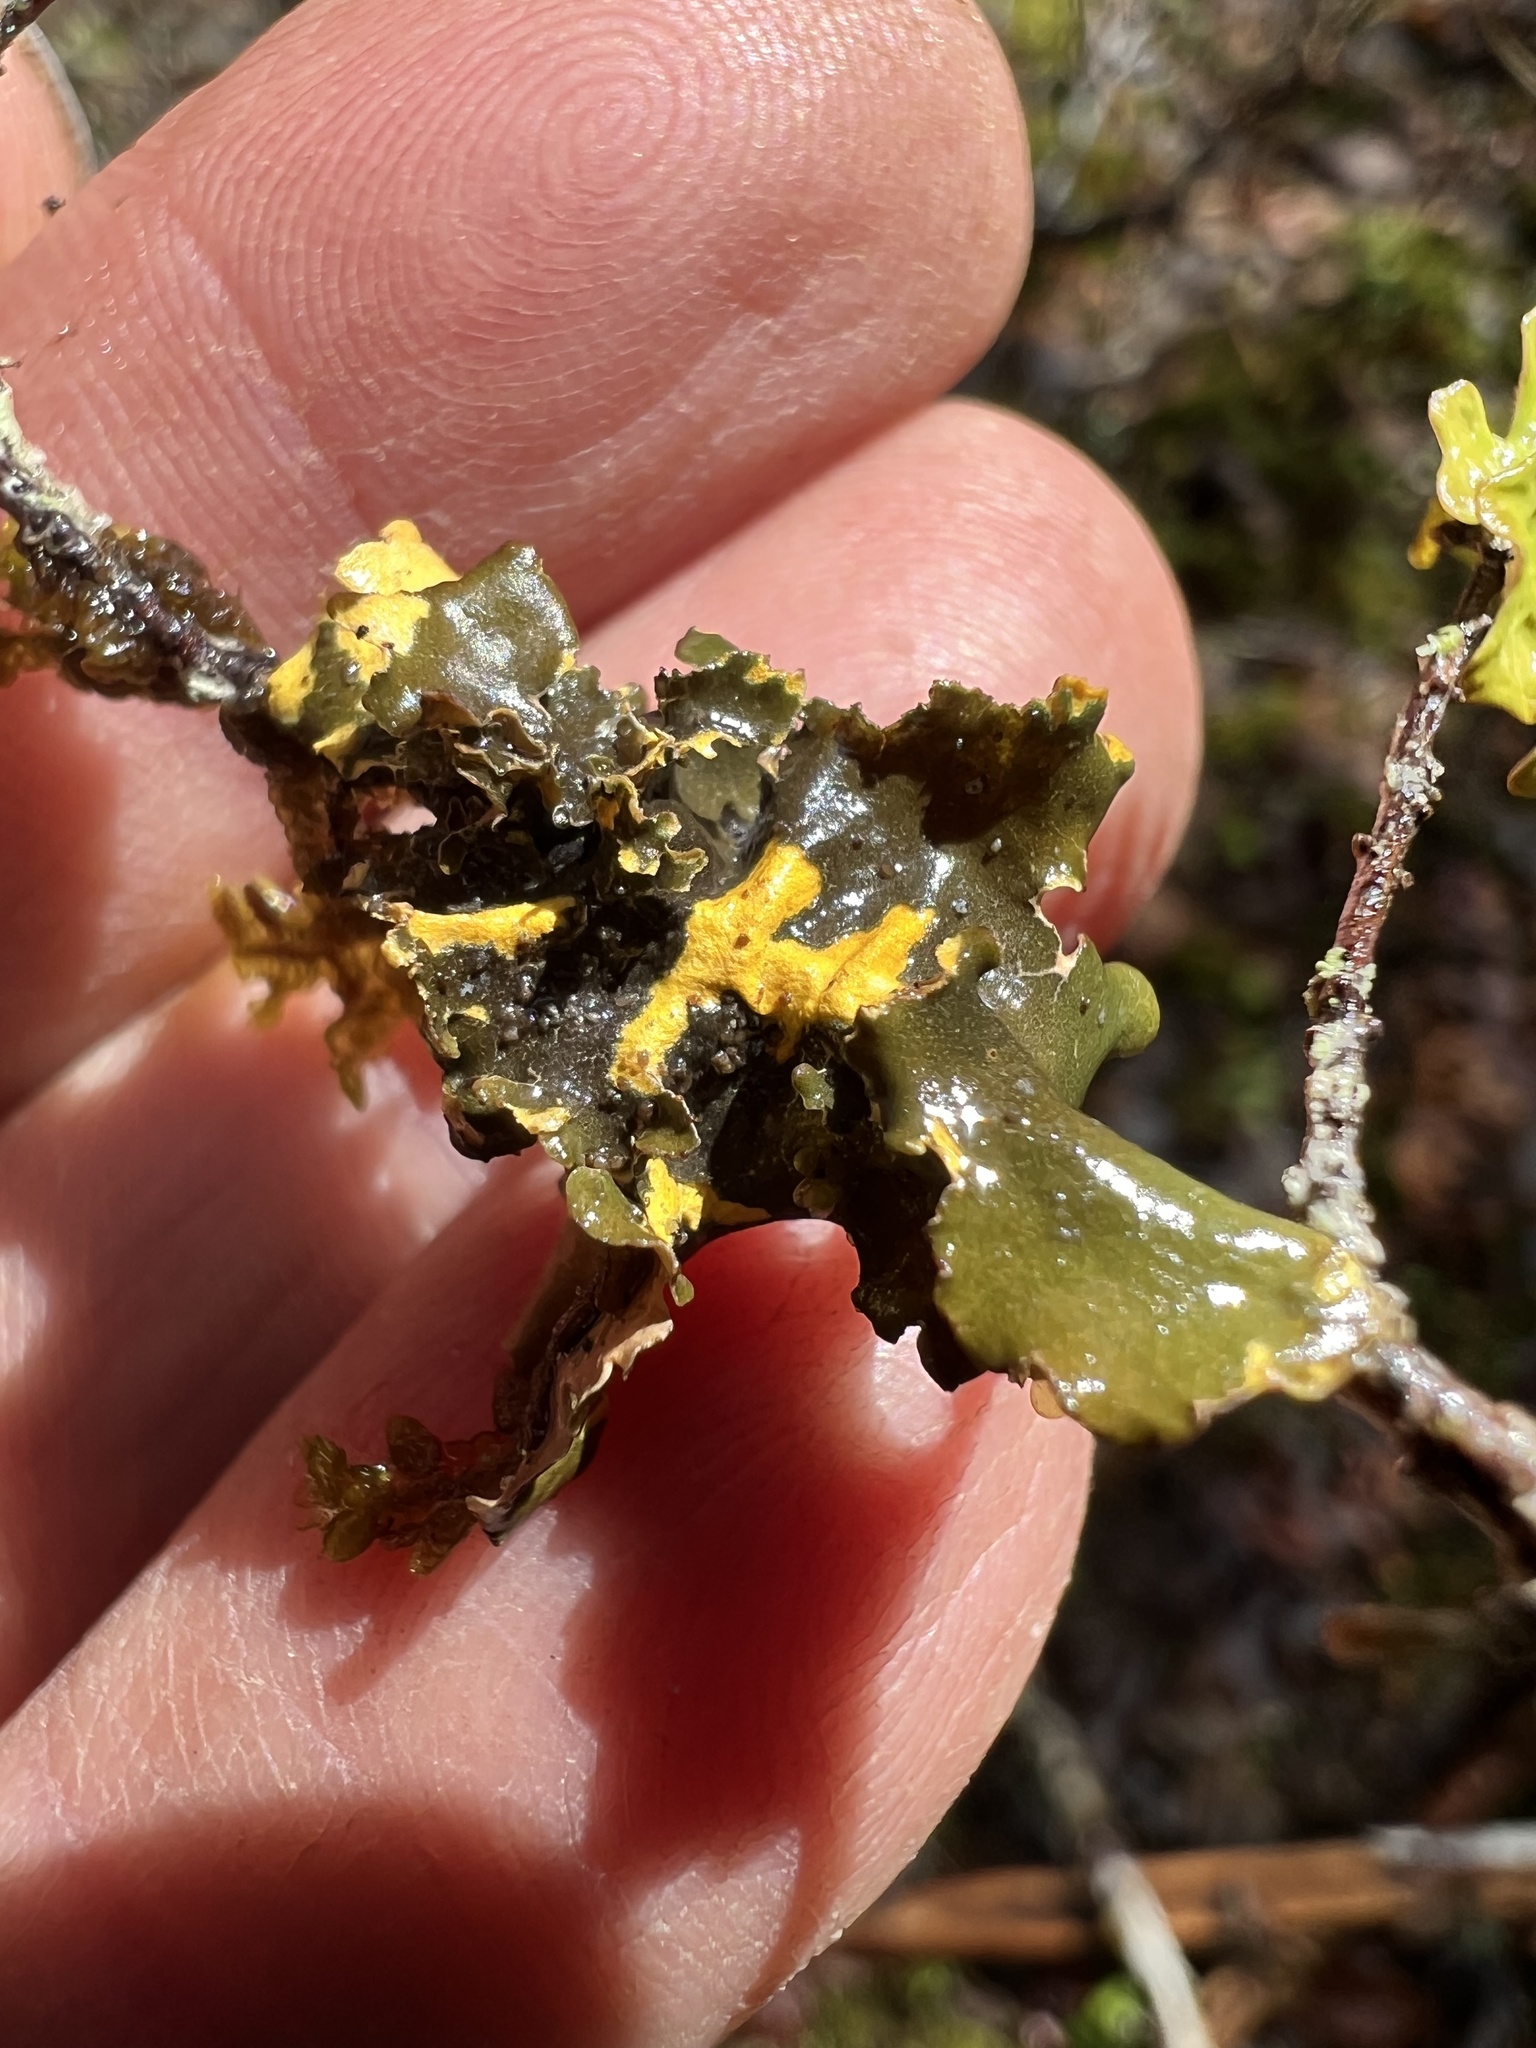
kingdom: Fungi
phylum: Ascomycota
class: Lecanoromycetes
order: Peltigerales
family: Nephromataceae
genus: Nephroma
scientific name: Nephroma laevigatum
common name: Mustard kidney lichen
